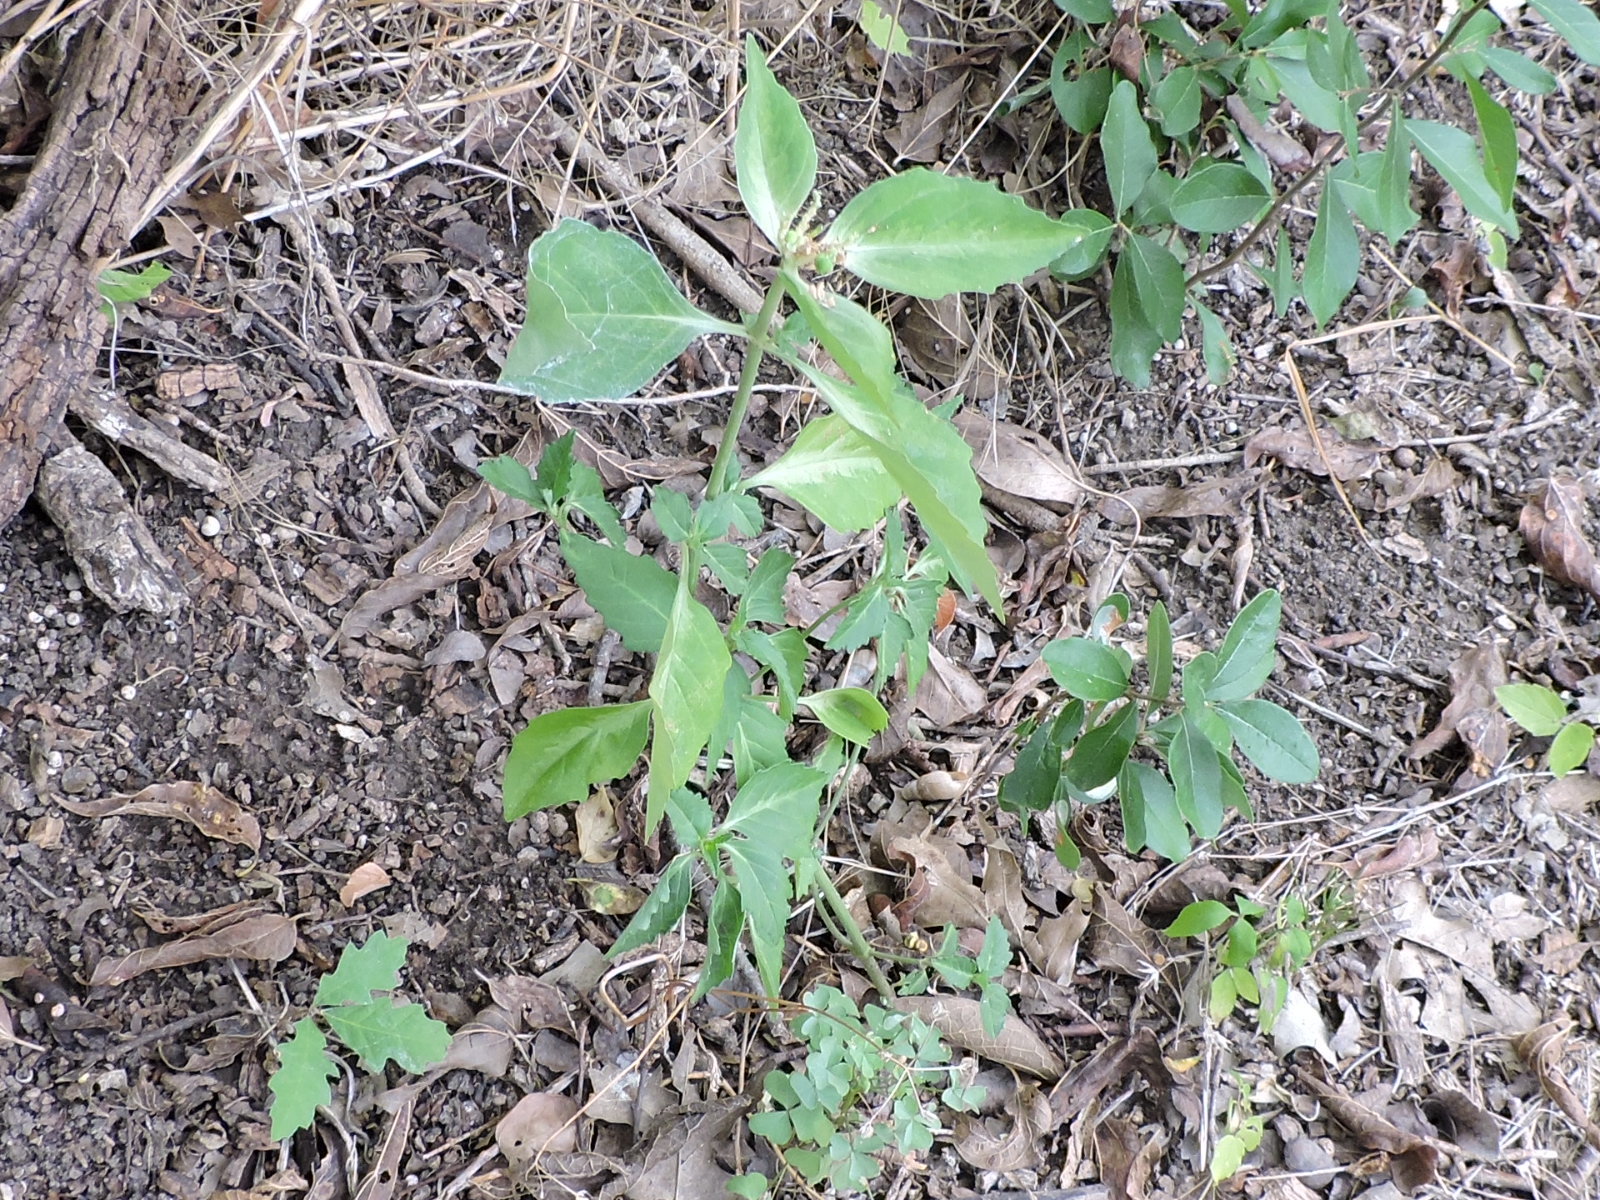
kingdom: Plantae
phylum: Tracheophyta
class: Magnoliopsida
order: Malpighiales
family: Euphorbiaceae
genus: Euphorbia
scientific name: Euphorbia dentata
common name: Dentate spurge
